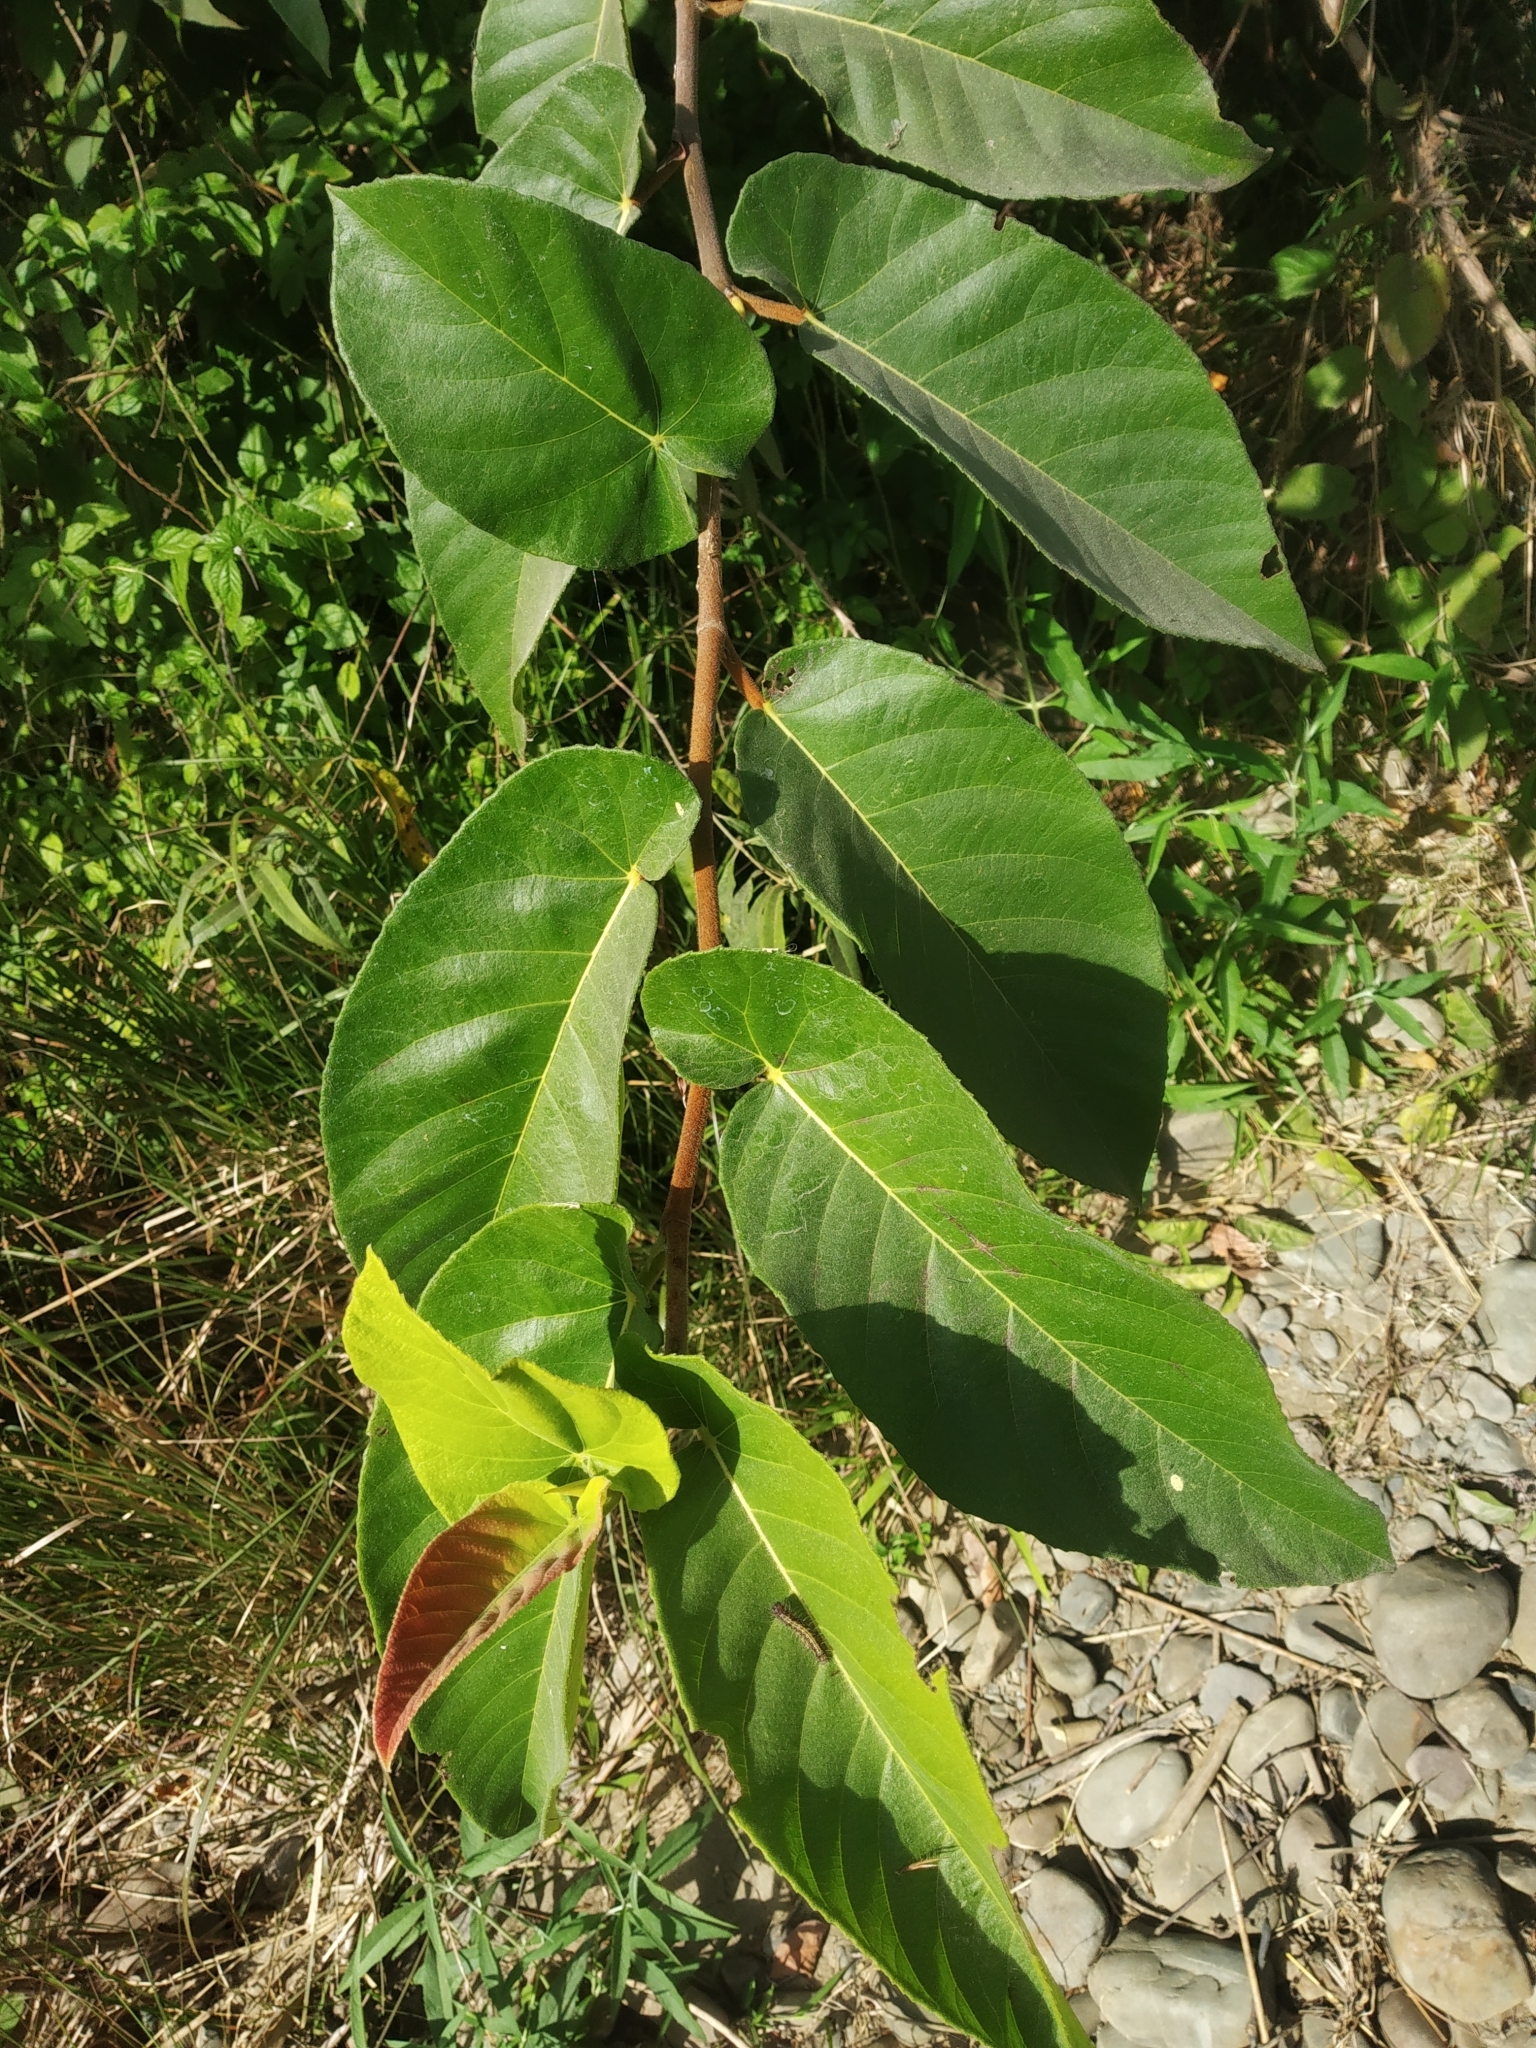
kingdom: Plantae
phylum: Tracheophyta
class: Magnoliopsida
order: Rosales
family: Moraceae
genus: Ficus
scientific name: Ficus semicordata
